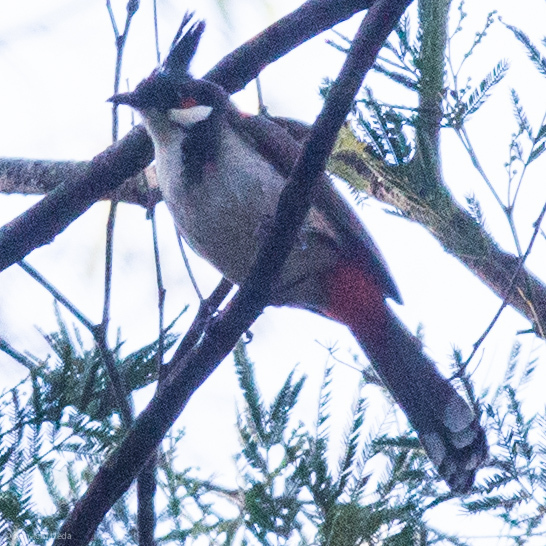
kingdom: Animalia
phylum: Chordata
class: Aves
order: Passeriformes
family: Pycnonotidae
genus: Pycnonotus
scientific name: Pycnonotus jocosus
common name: Red-whiskered bulbul
